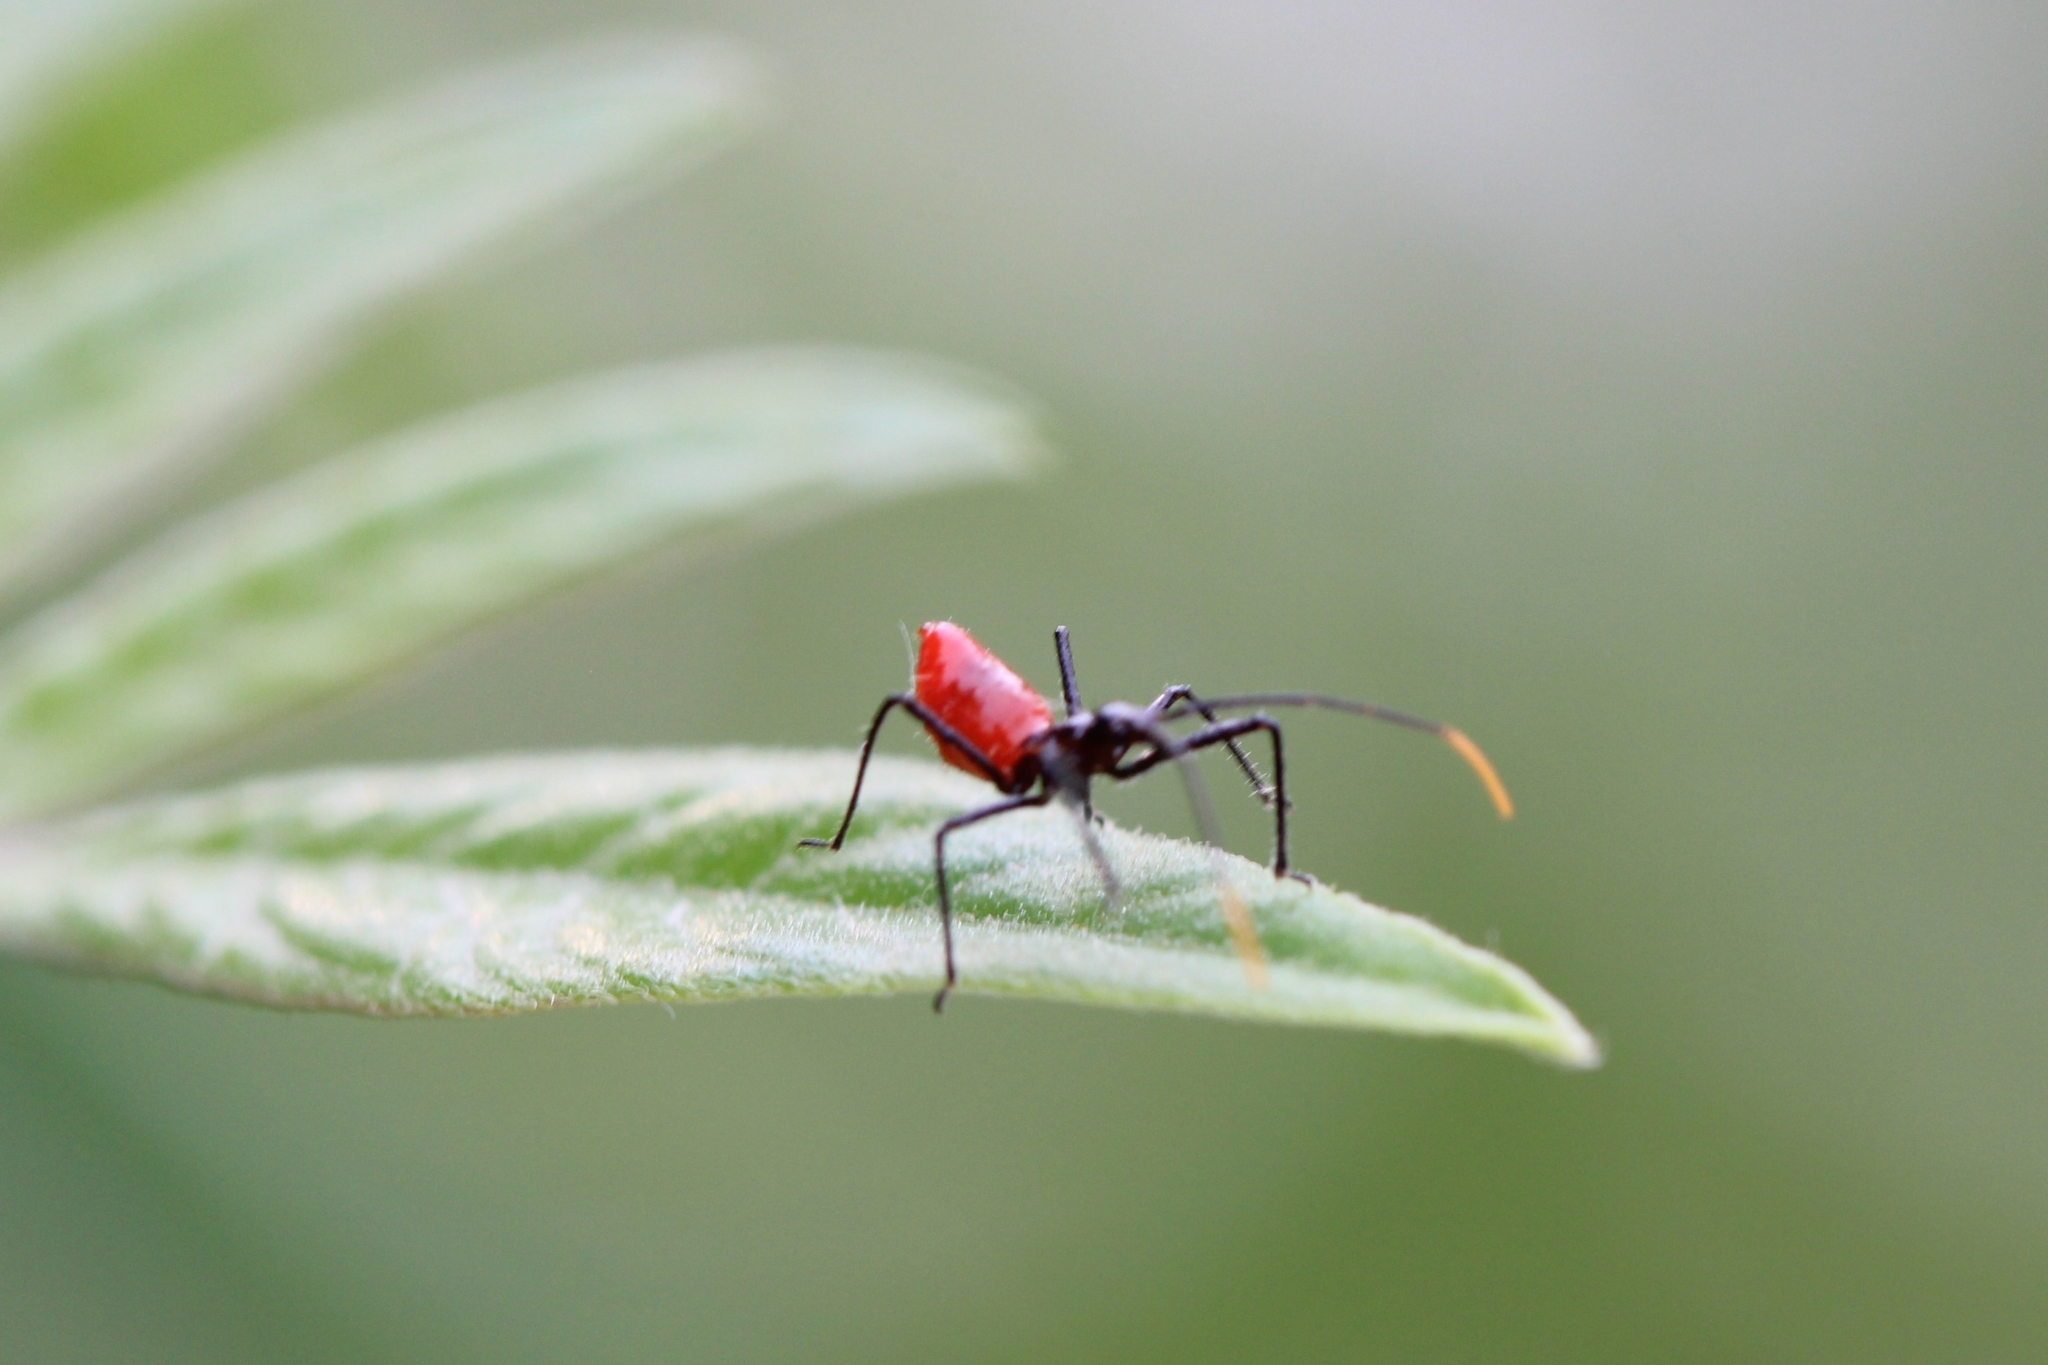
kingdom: Animalia
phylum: Arthropoda
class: Insecta
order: Hemiptera
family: Reduviidae
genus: Arilus
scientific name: Arilus cristatus
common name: North american wheel bug
